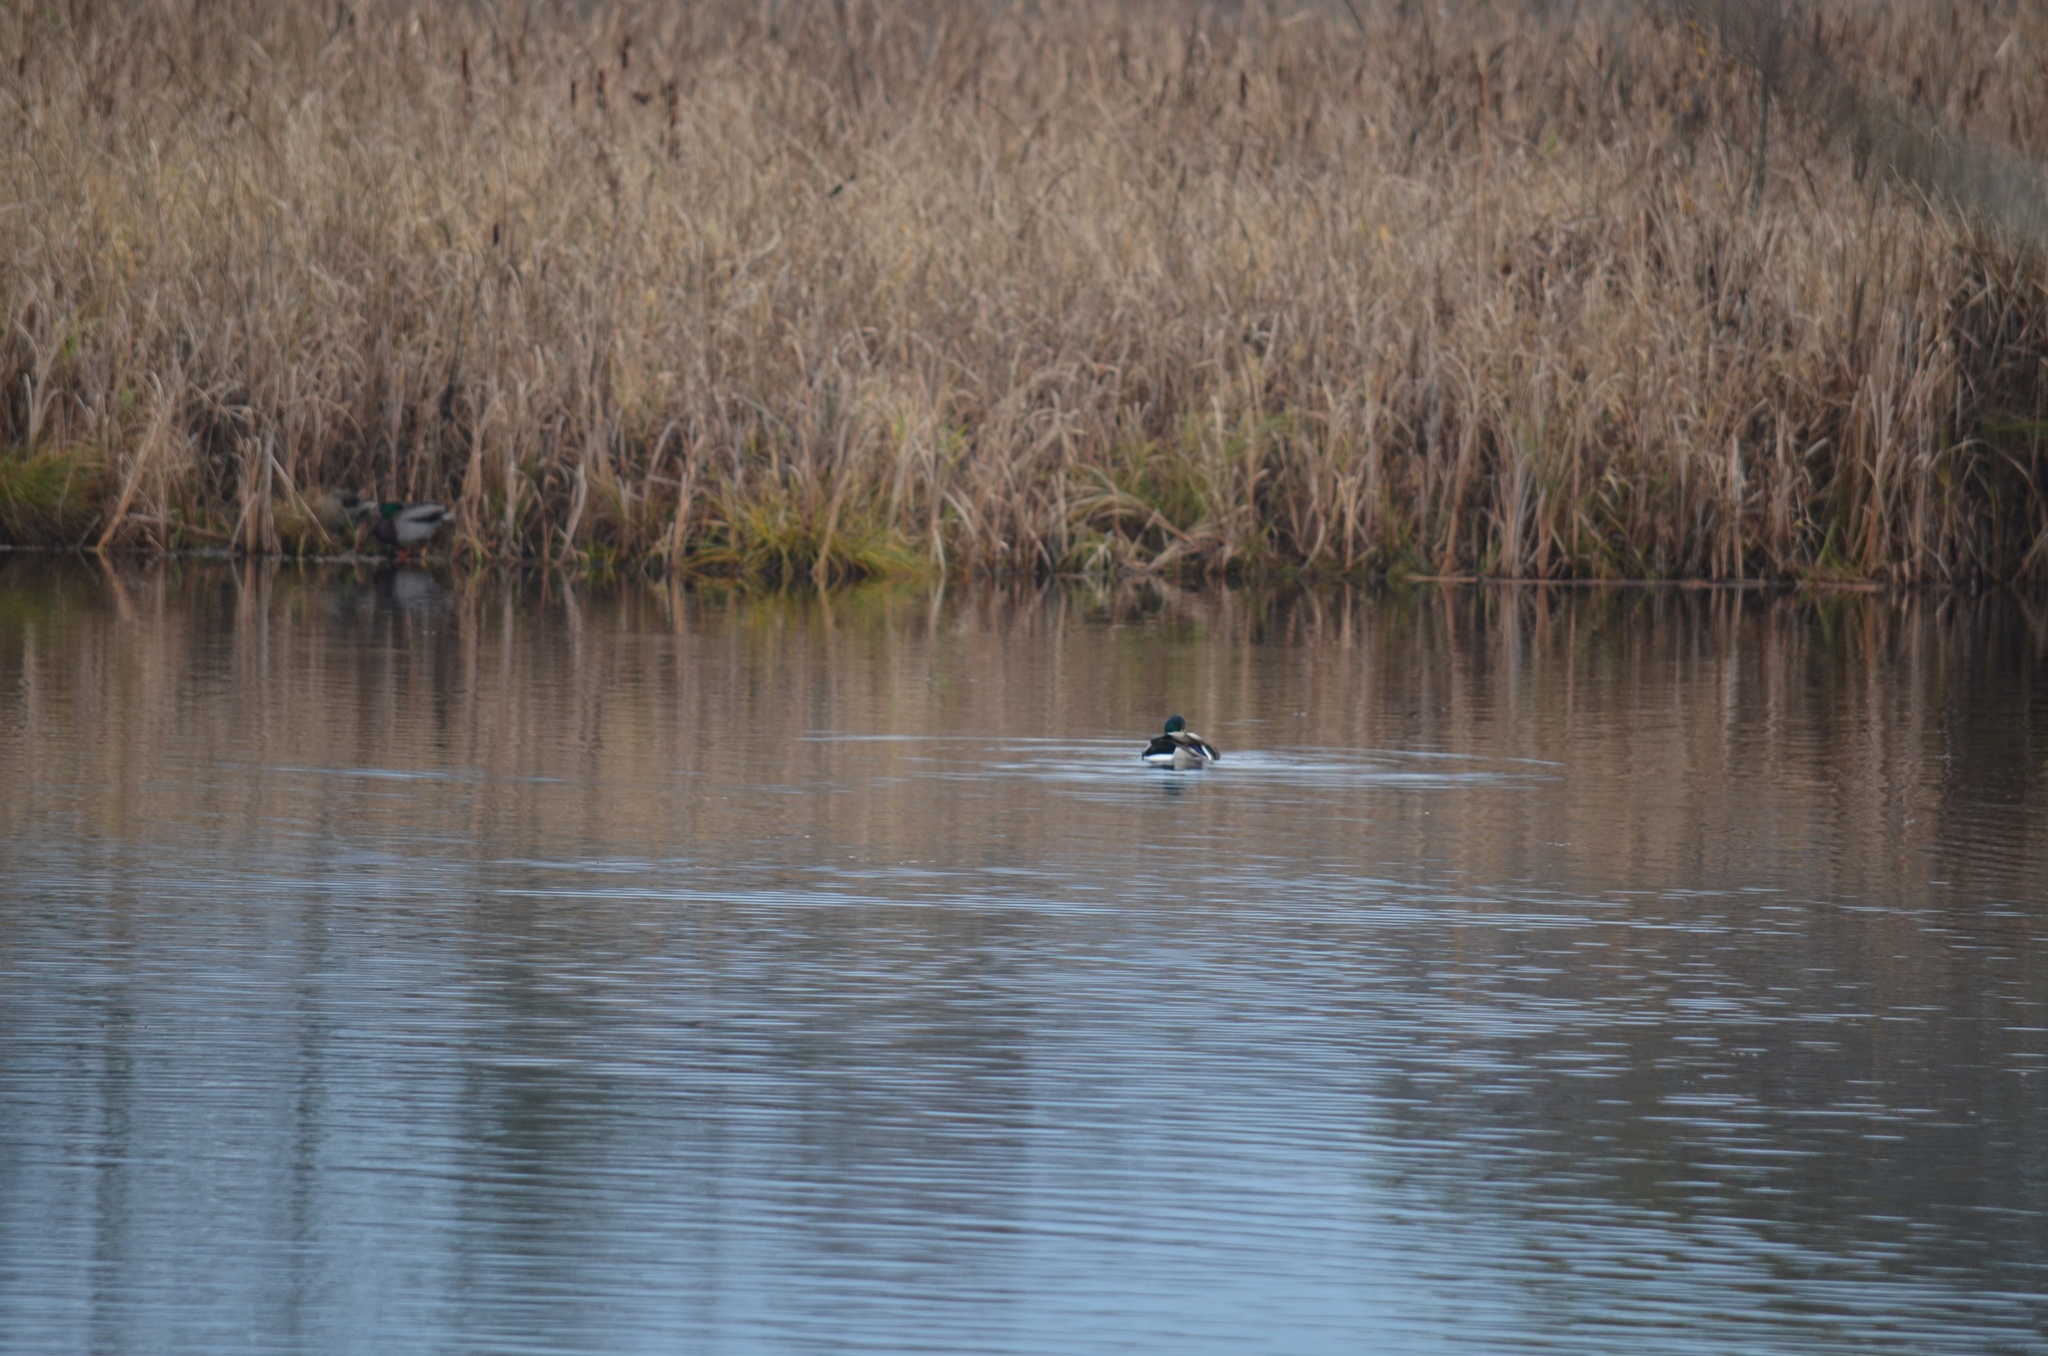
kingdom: Animalia
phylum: Chordata
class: Aves
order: Anseriformes
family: Anatidae
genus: Anas
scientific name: Anas platyrhynchos
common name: Mallard
